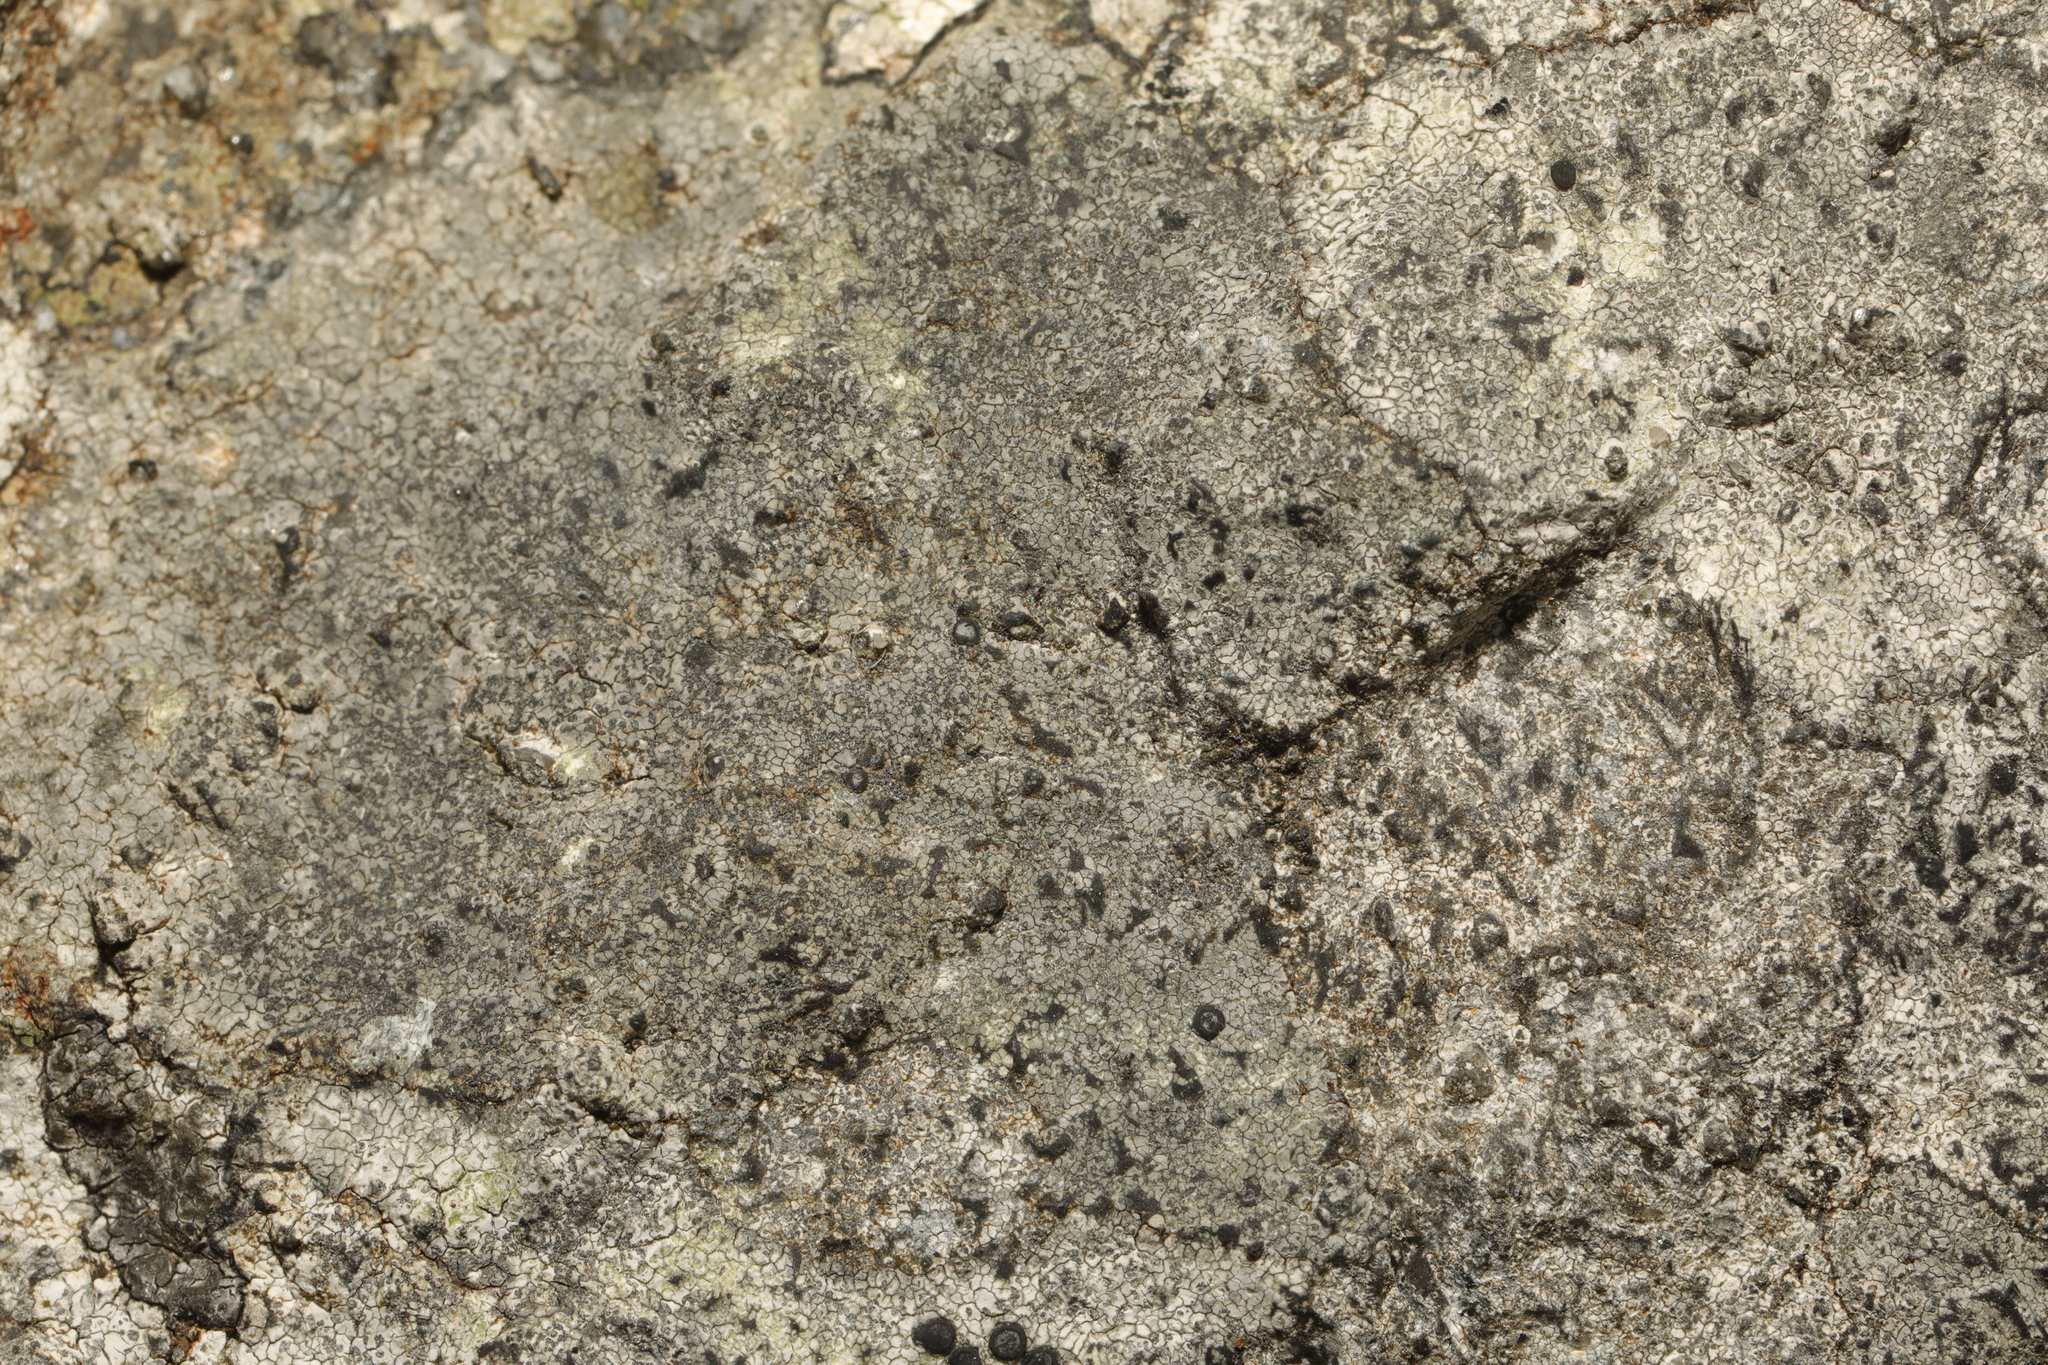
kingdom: Fungi
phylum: Ascomycota
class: Lecanoromycetes
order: Lecideales
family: Lecideaceae
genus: Porpidia
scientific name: Porpidia tuberculosa
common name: Boulder lichen
